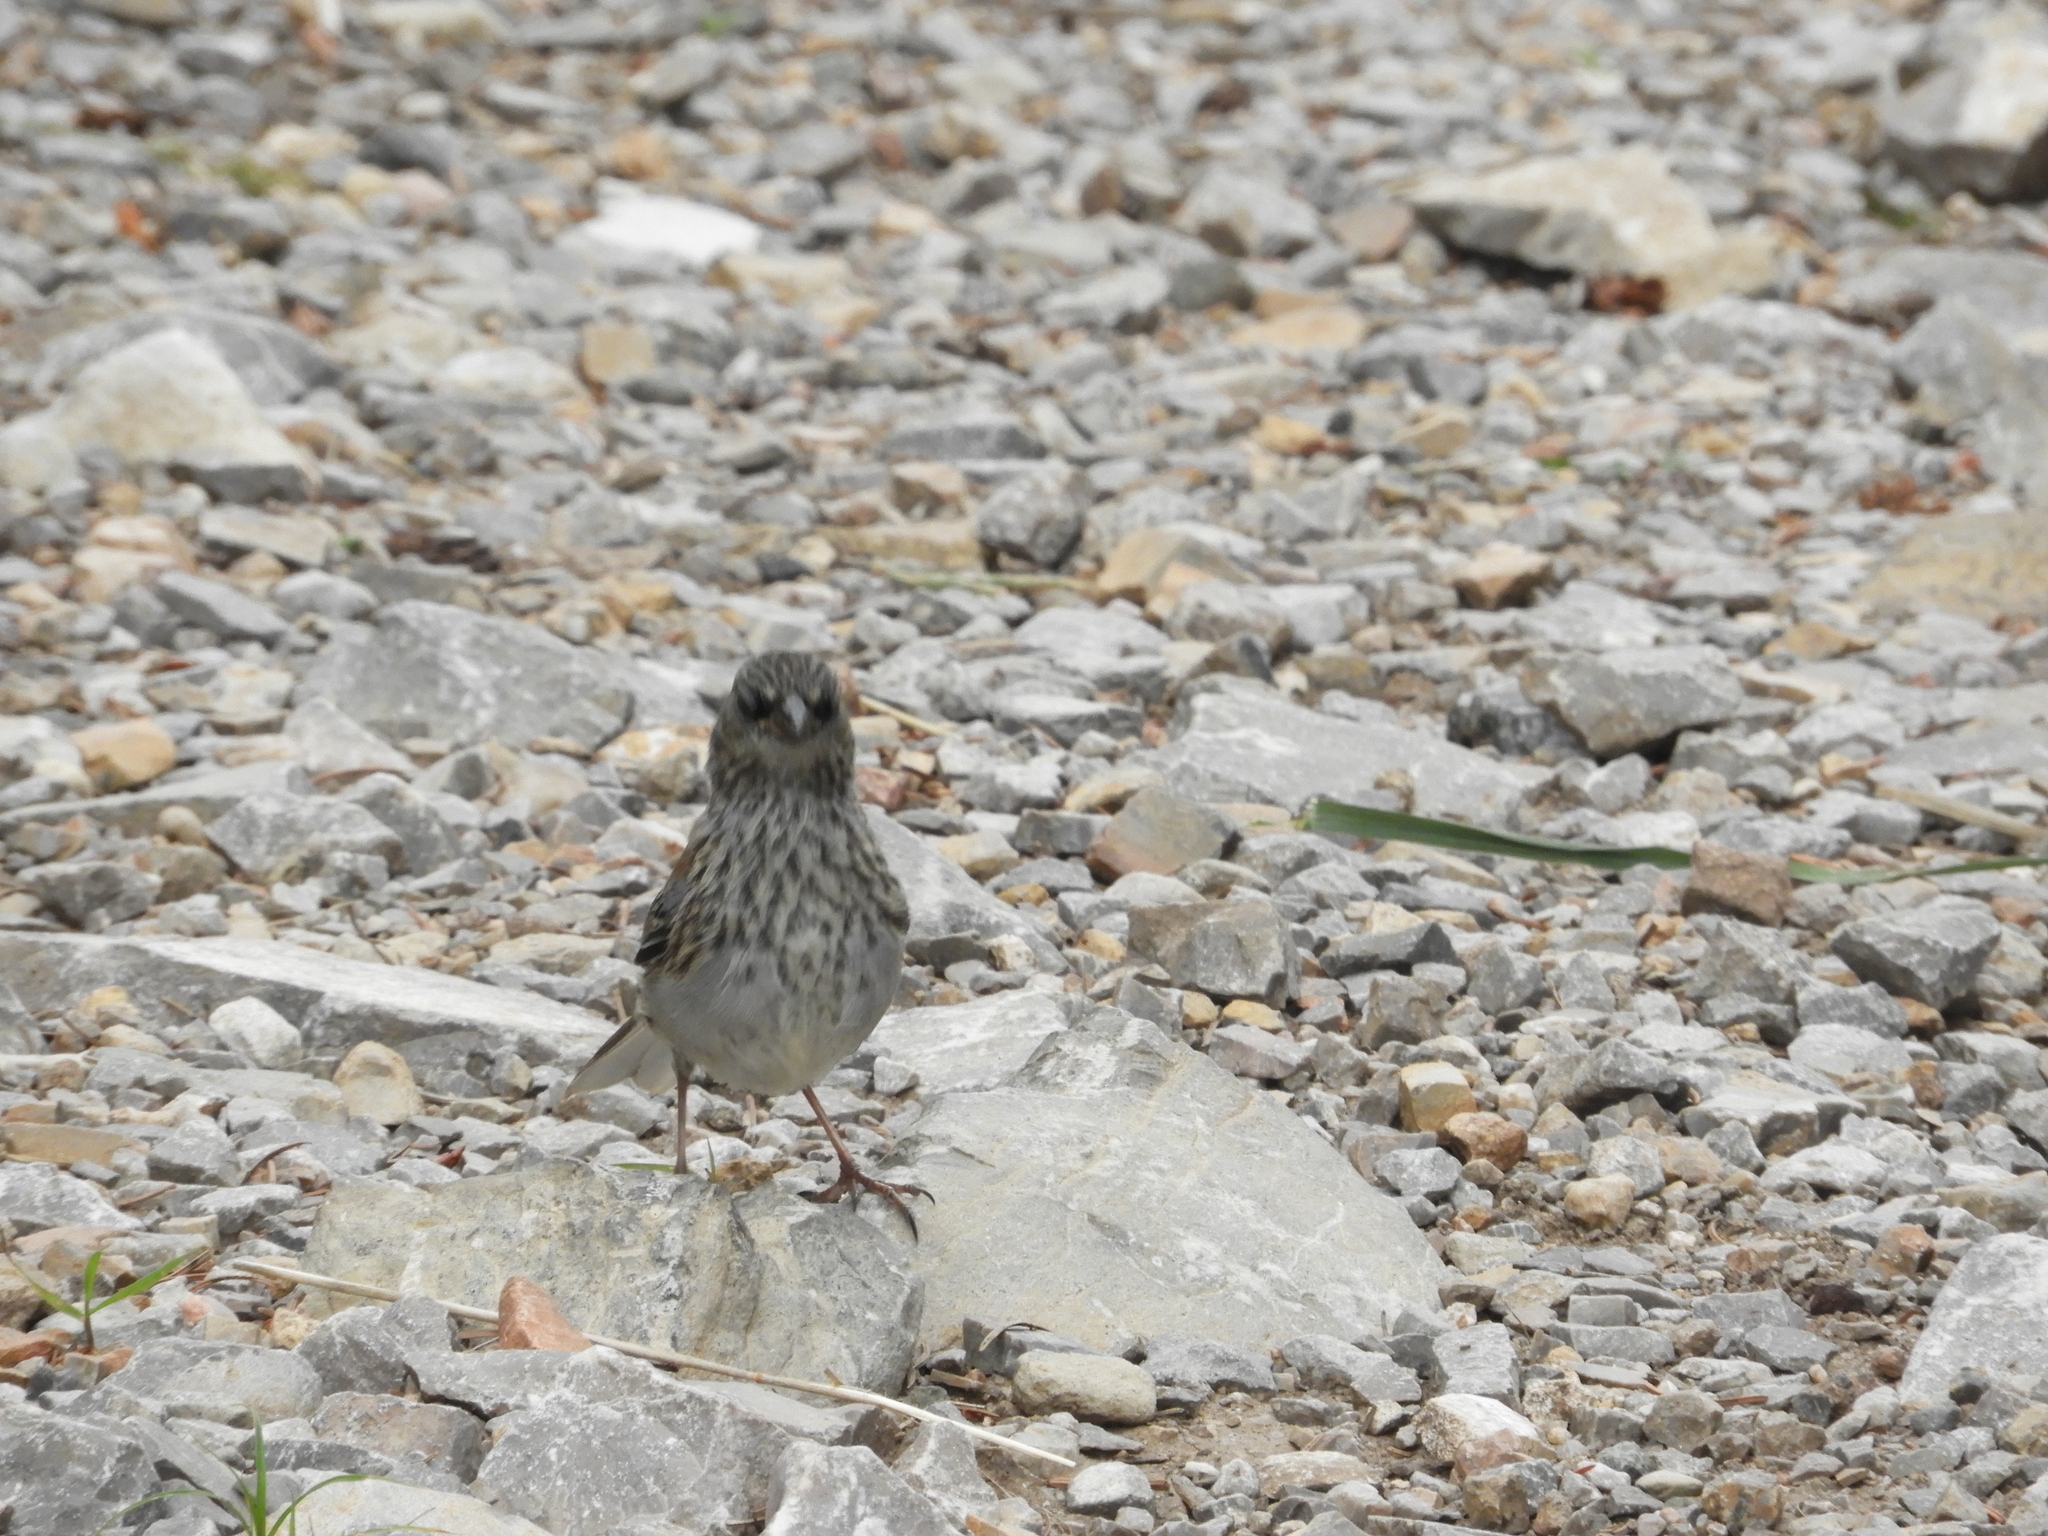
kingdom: Animalia
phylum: Chordata
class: Aves
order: Passeriformes
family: Passerellidae
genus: Junco
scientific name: Junco hyemalis
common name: Dark-eyed junco
